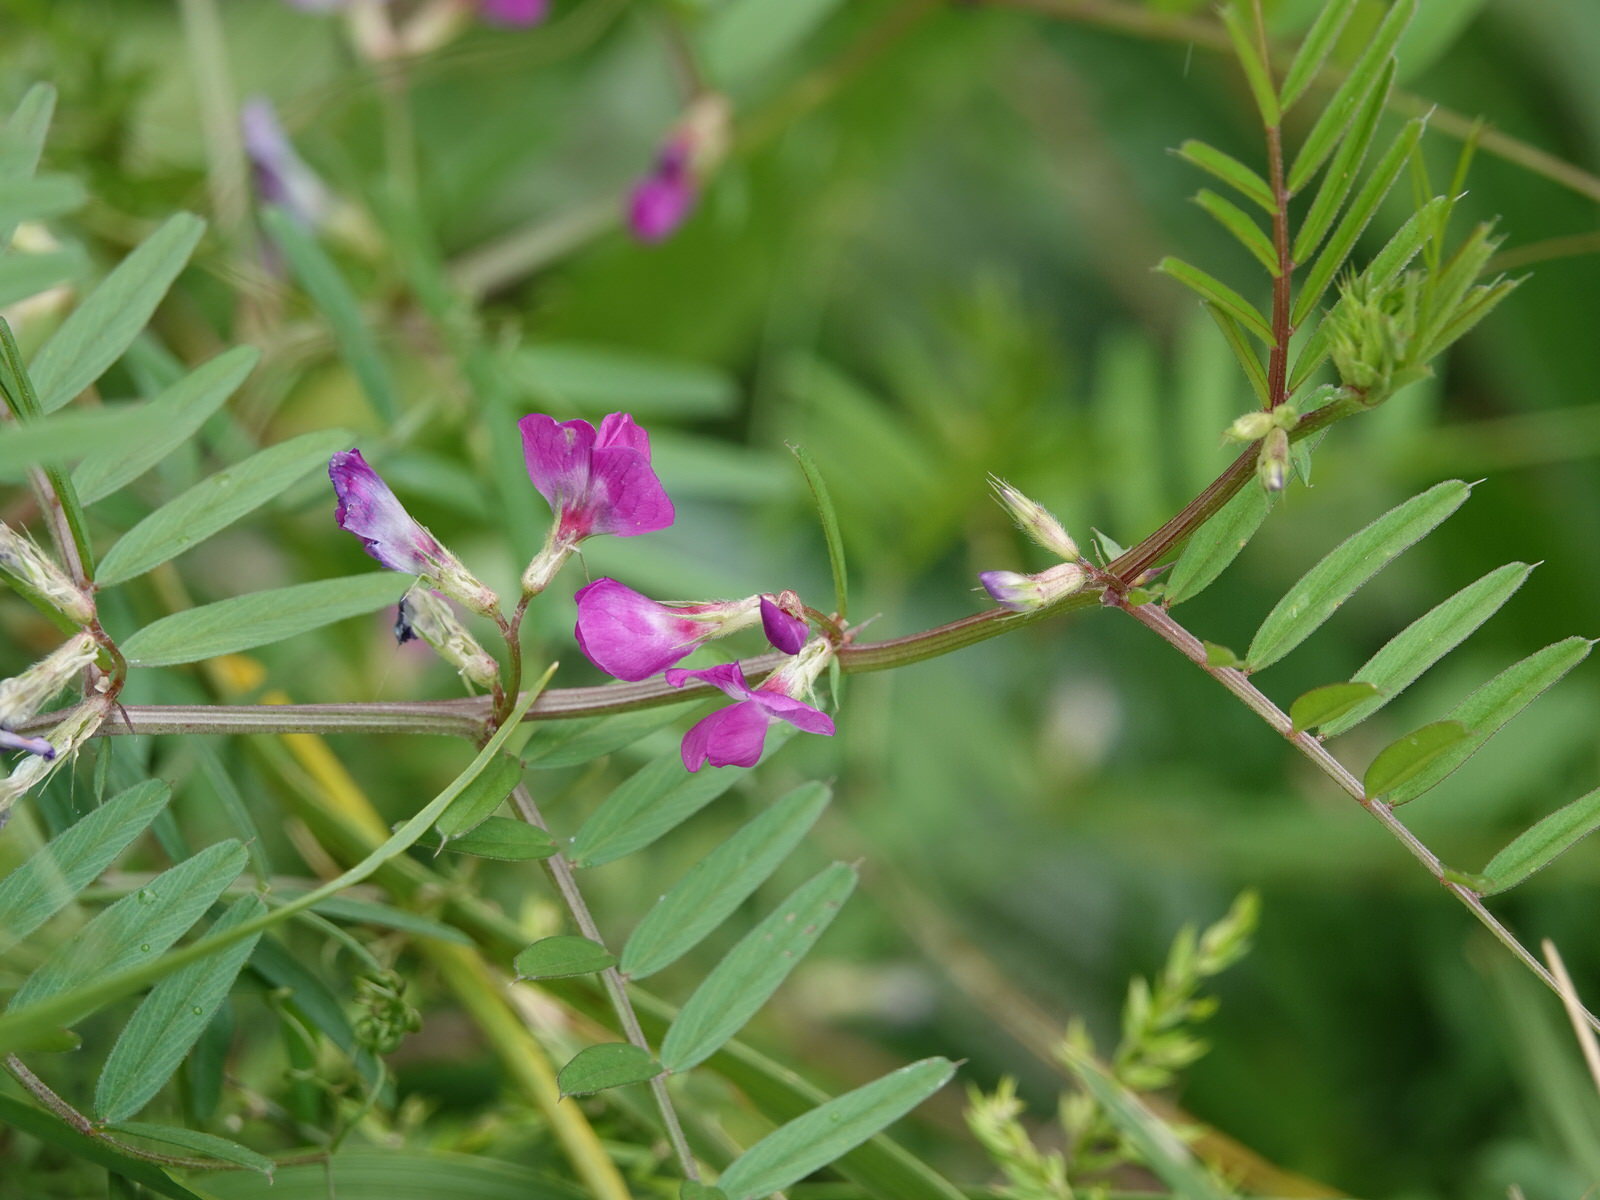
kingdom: Plantae
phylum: Tracheophyta
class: Magnoliopsida
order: Fabales
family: Fabaceae
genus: Vicia
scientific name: Vicia sativa
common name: Garden vetch
